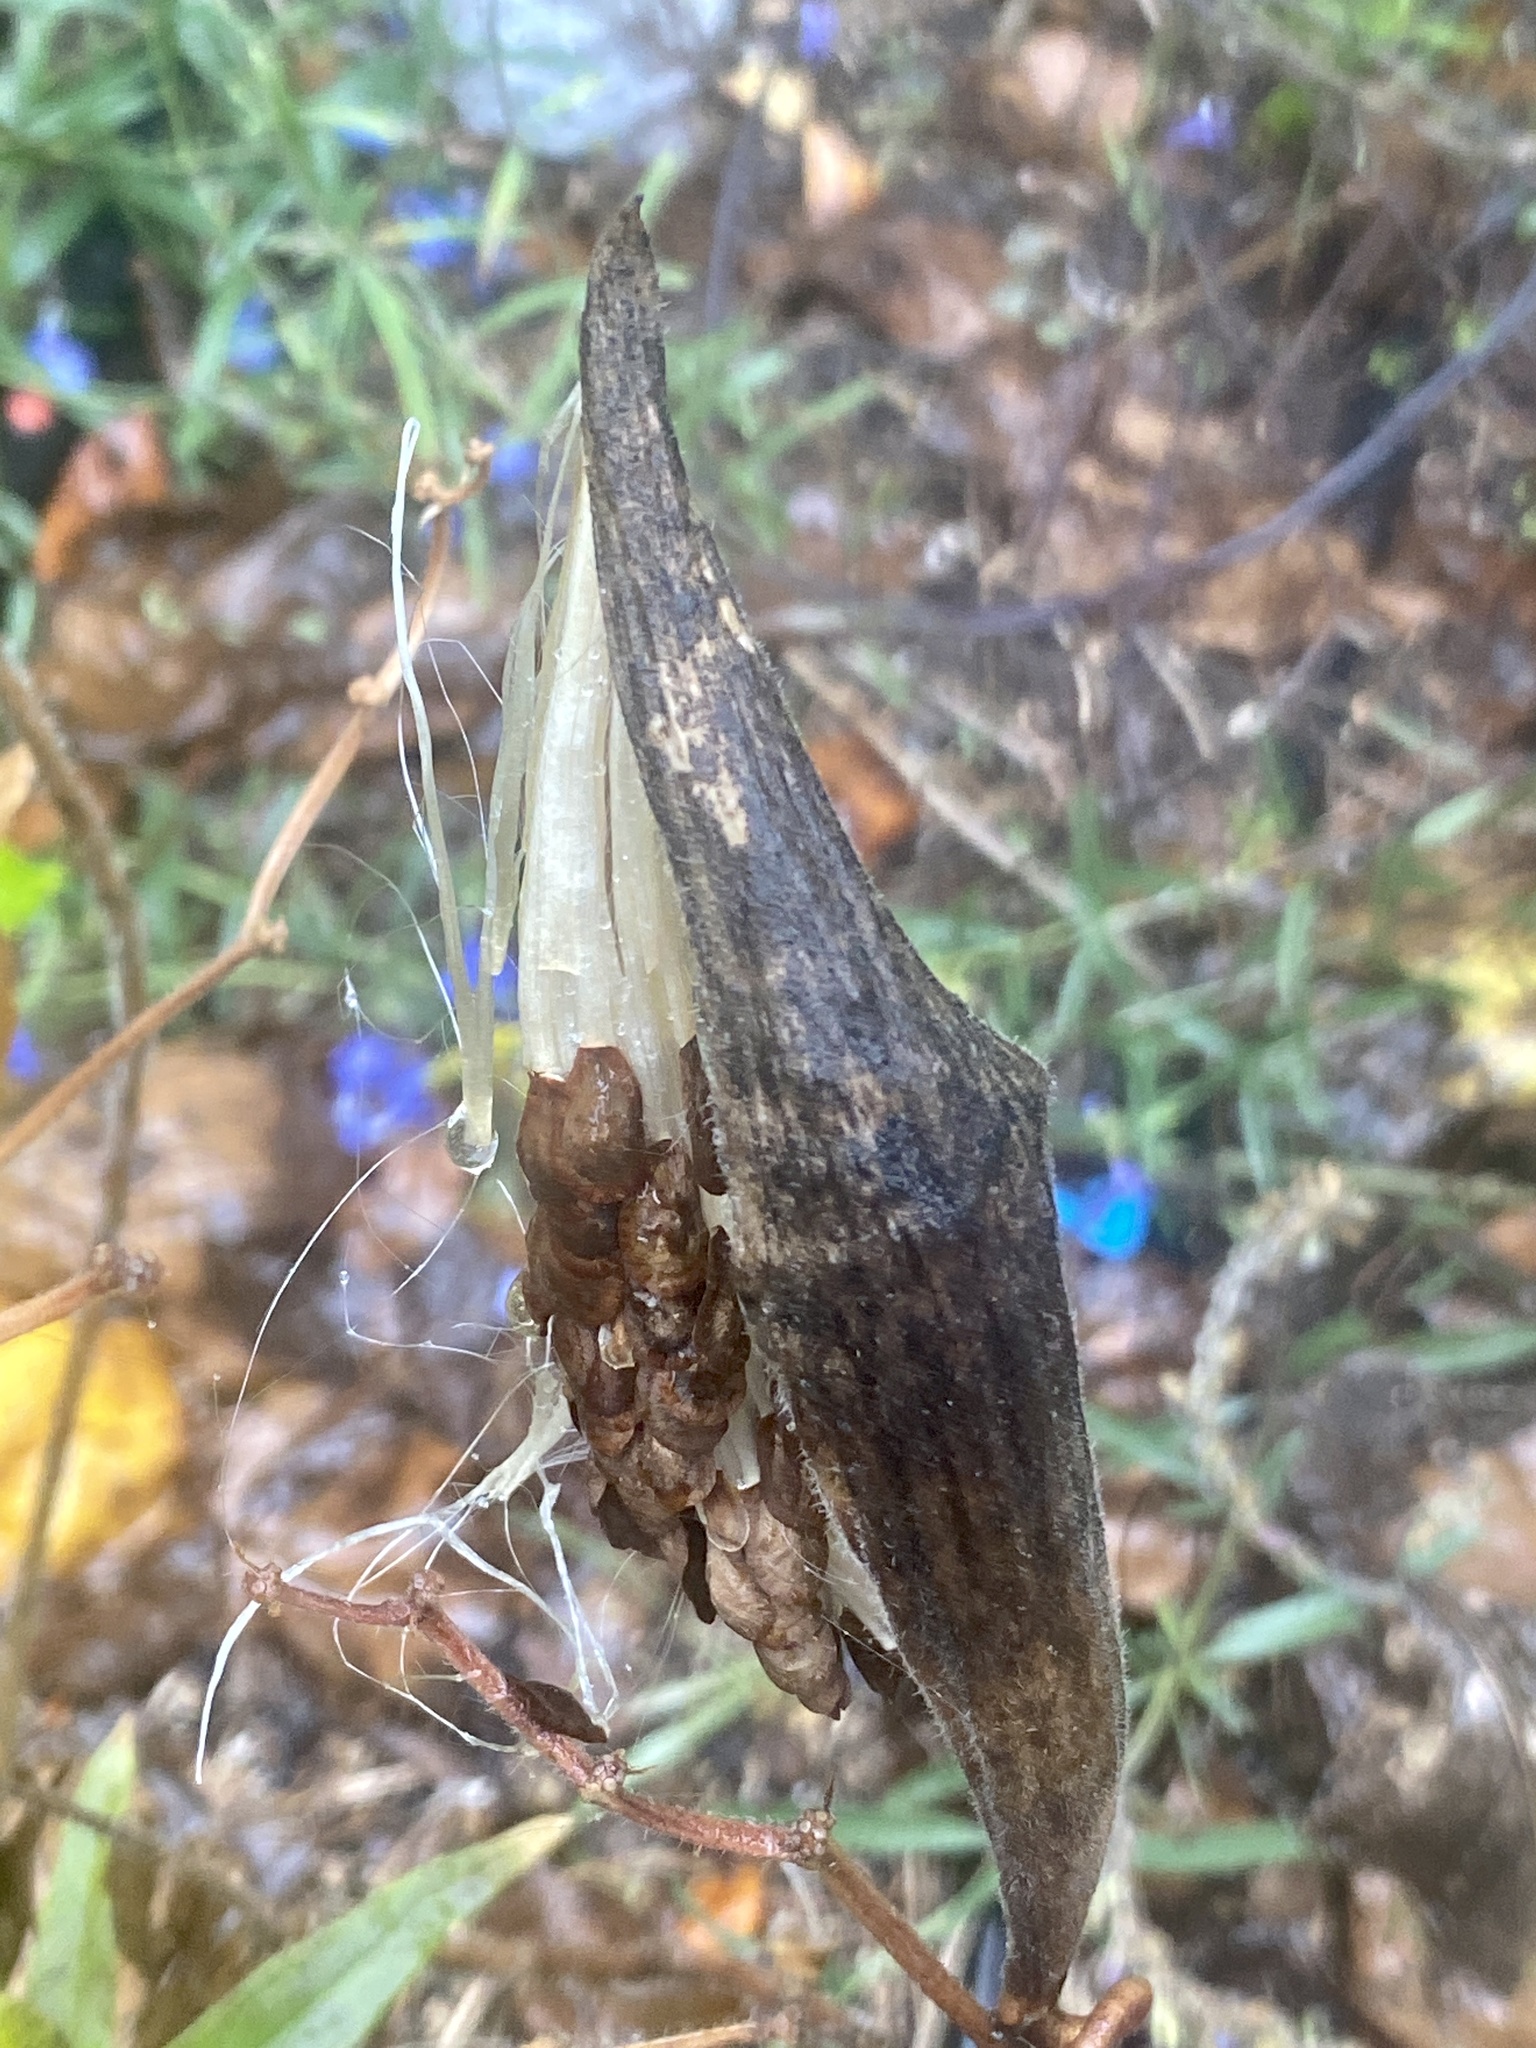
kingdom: Plantae
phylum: Tracheophyta
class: Magnoliopsida
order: Gentianales
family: Apocynaceae
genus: Asclepias
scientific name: Asclepias tuberosa
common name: Butterfly milkweed
